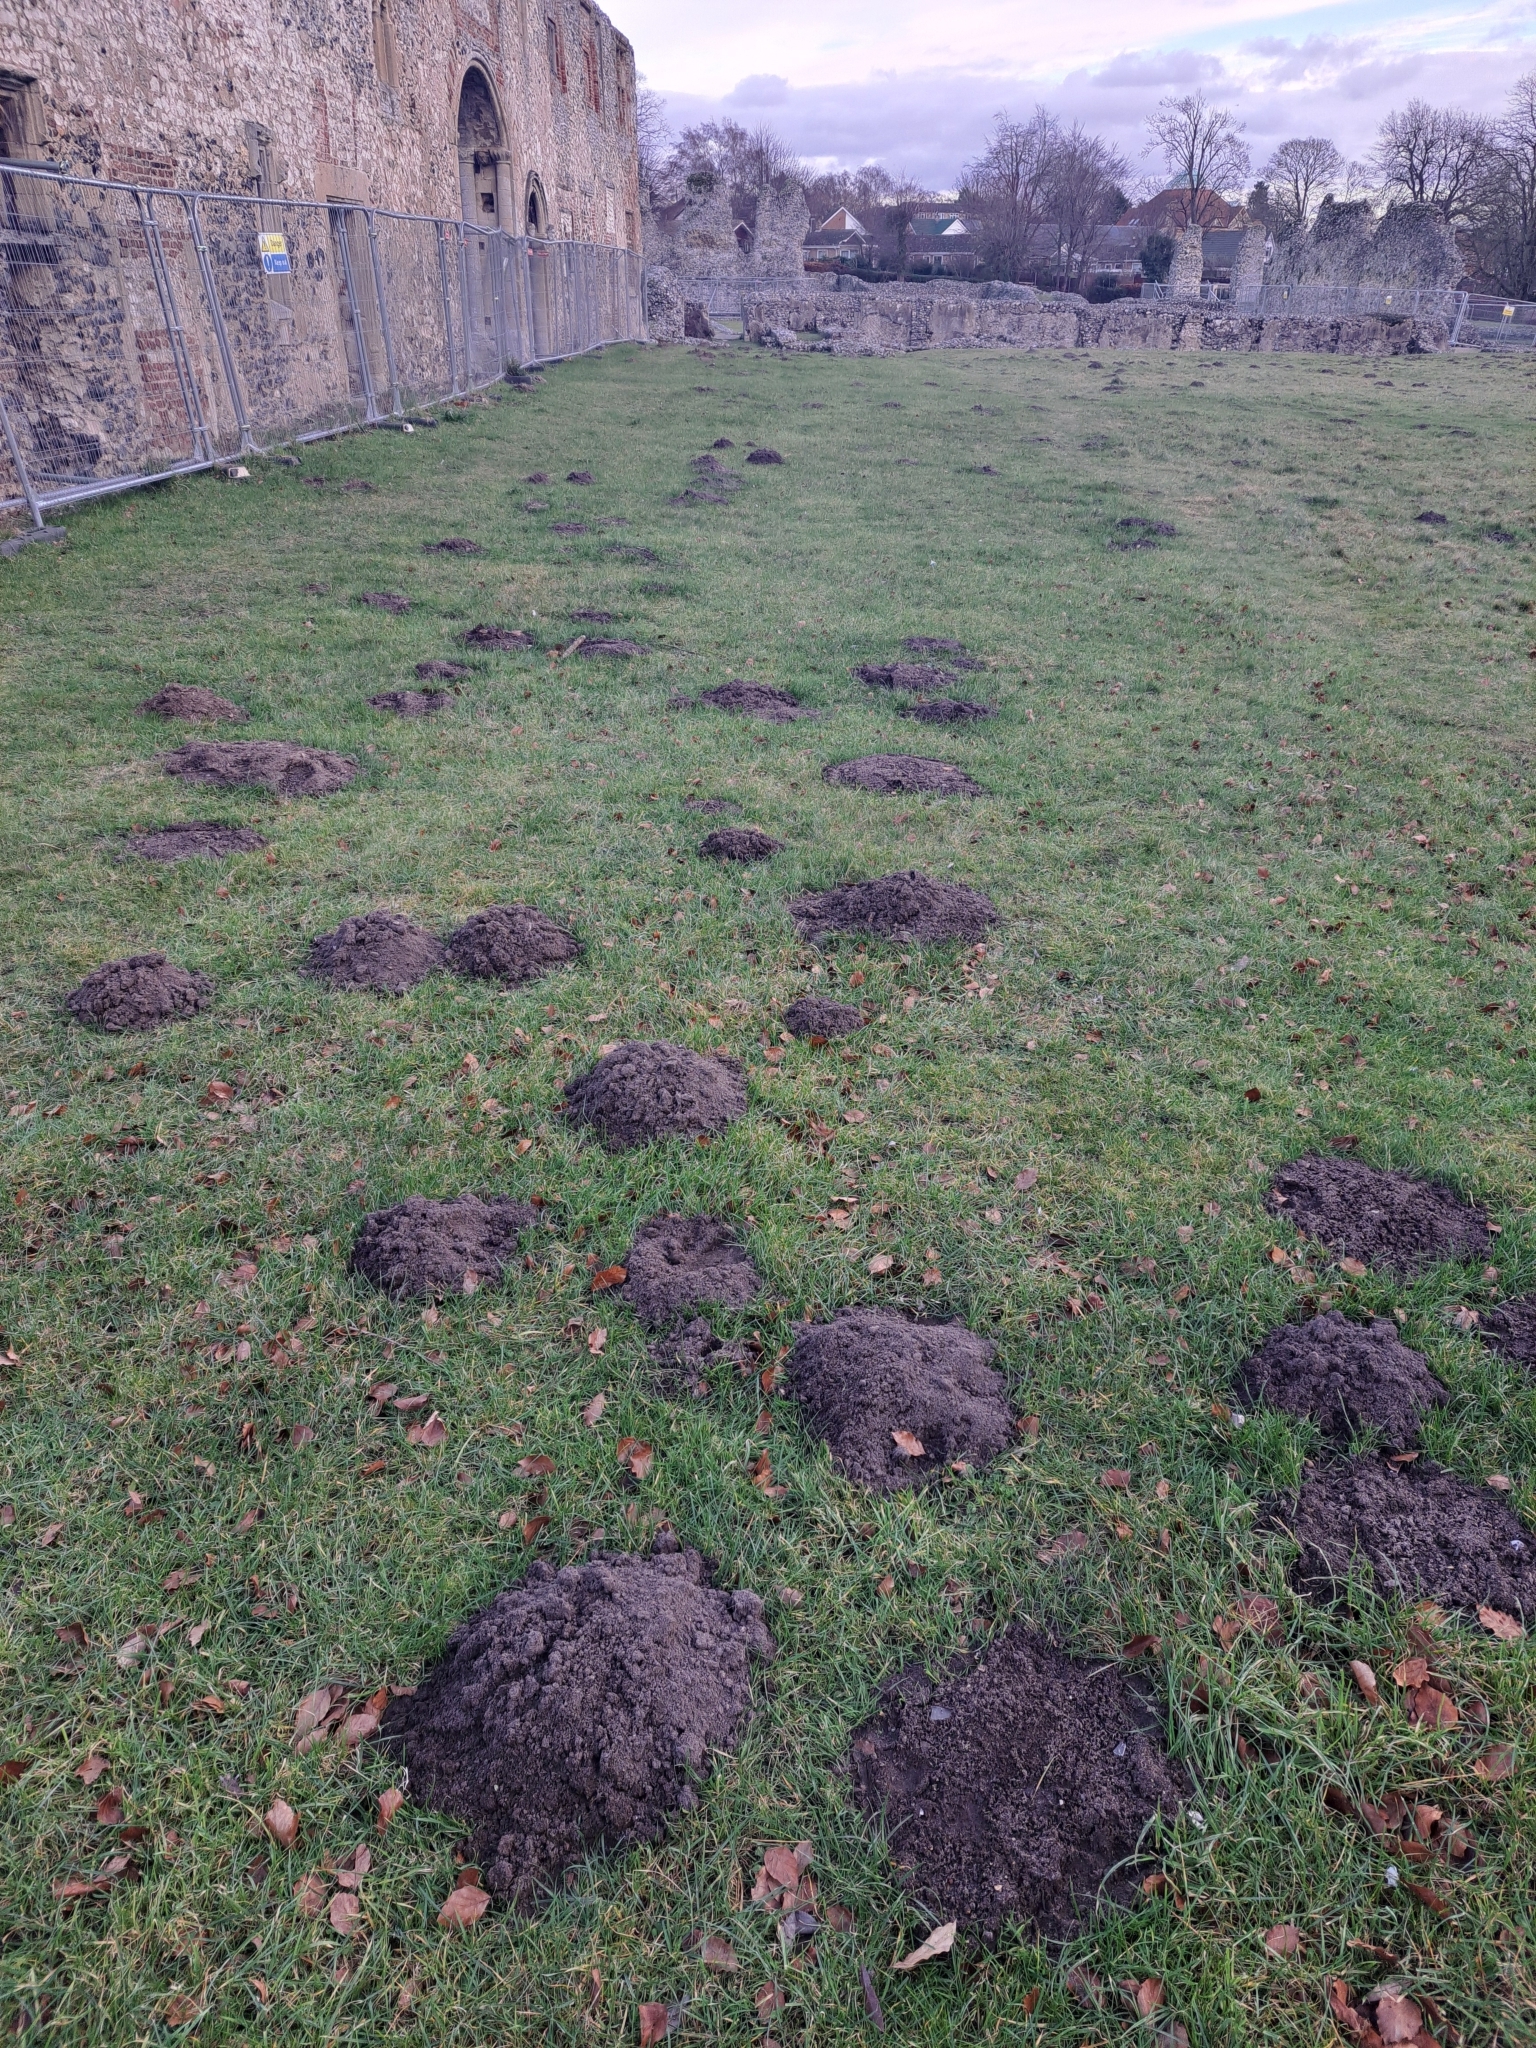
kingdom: Animalia
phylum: Chordata
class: Mammalia
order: Soricomorpha
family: Talpidae
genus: Talpa
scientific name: Talpa europaea
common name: European mole
